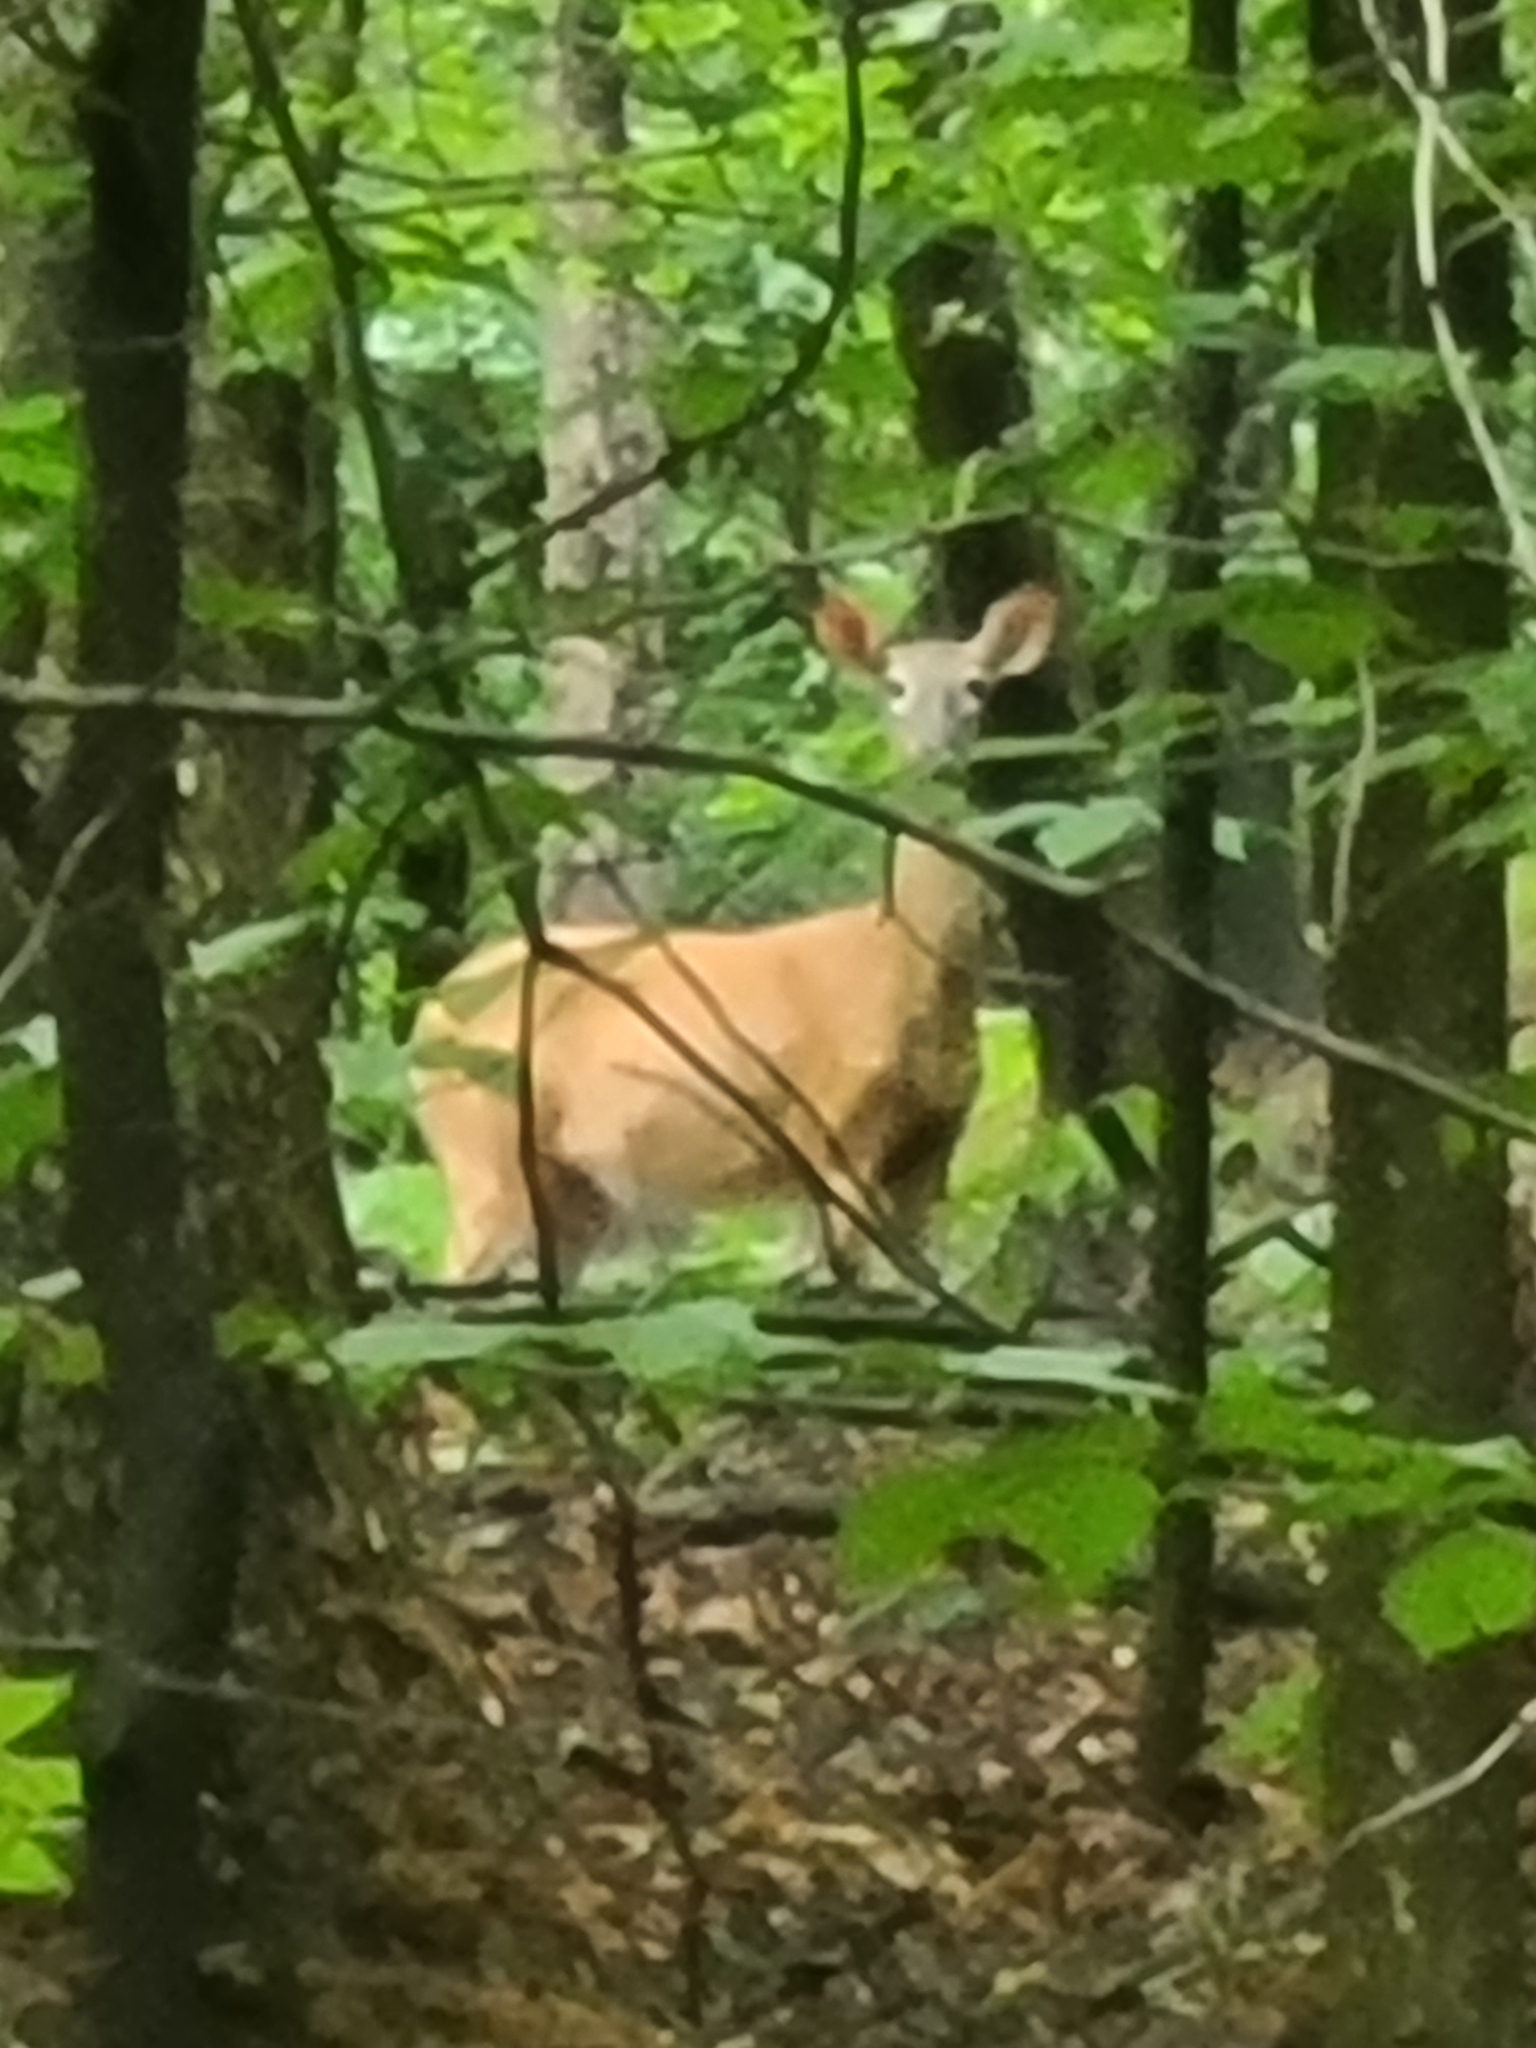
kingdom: Animalia
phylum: Chordata
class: Mammalia
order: Artiodactyla
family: Cervidae
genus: Odocoileus
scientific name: Odocoileus virginianus
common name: White-tailed deer
